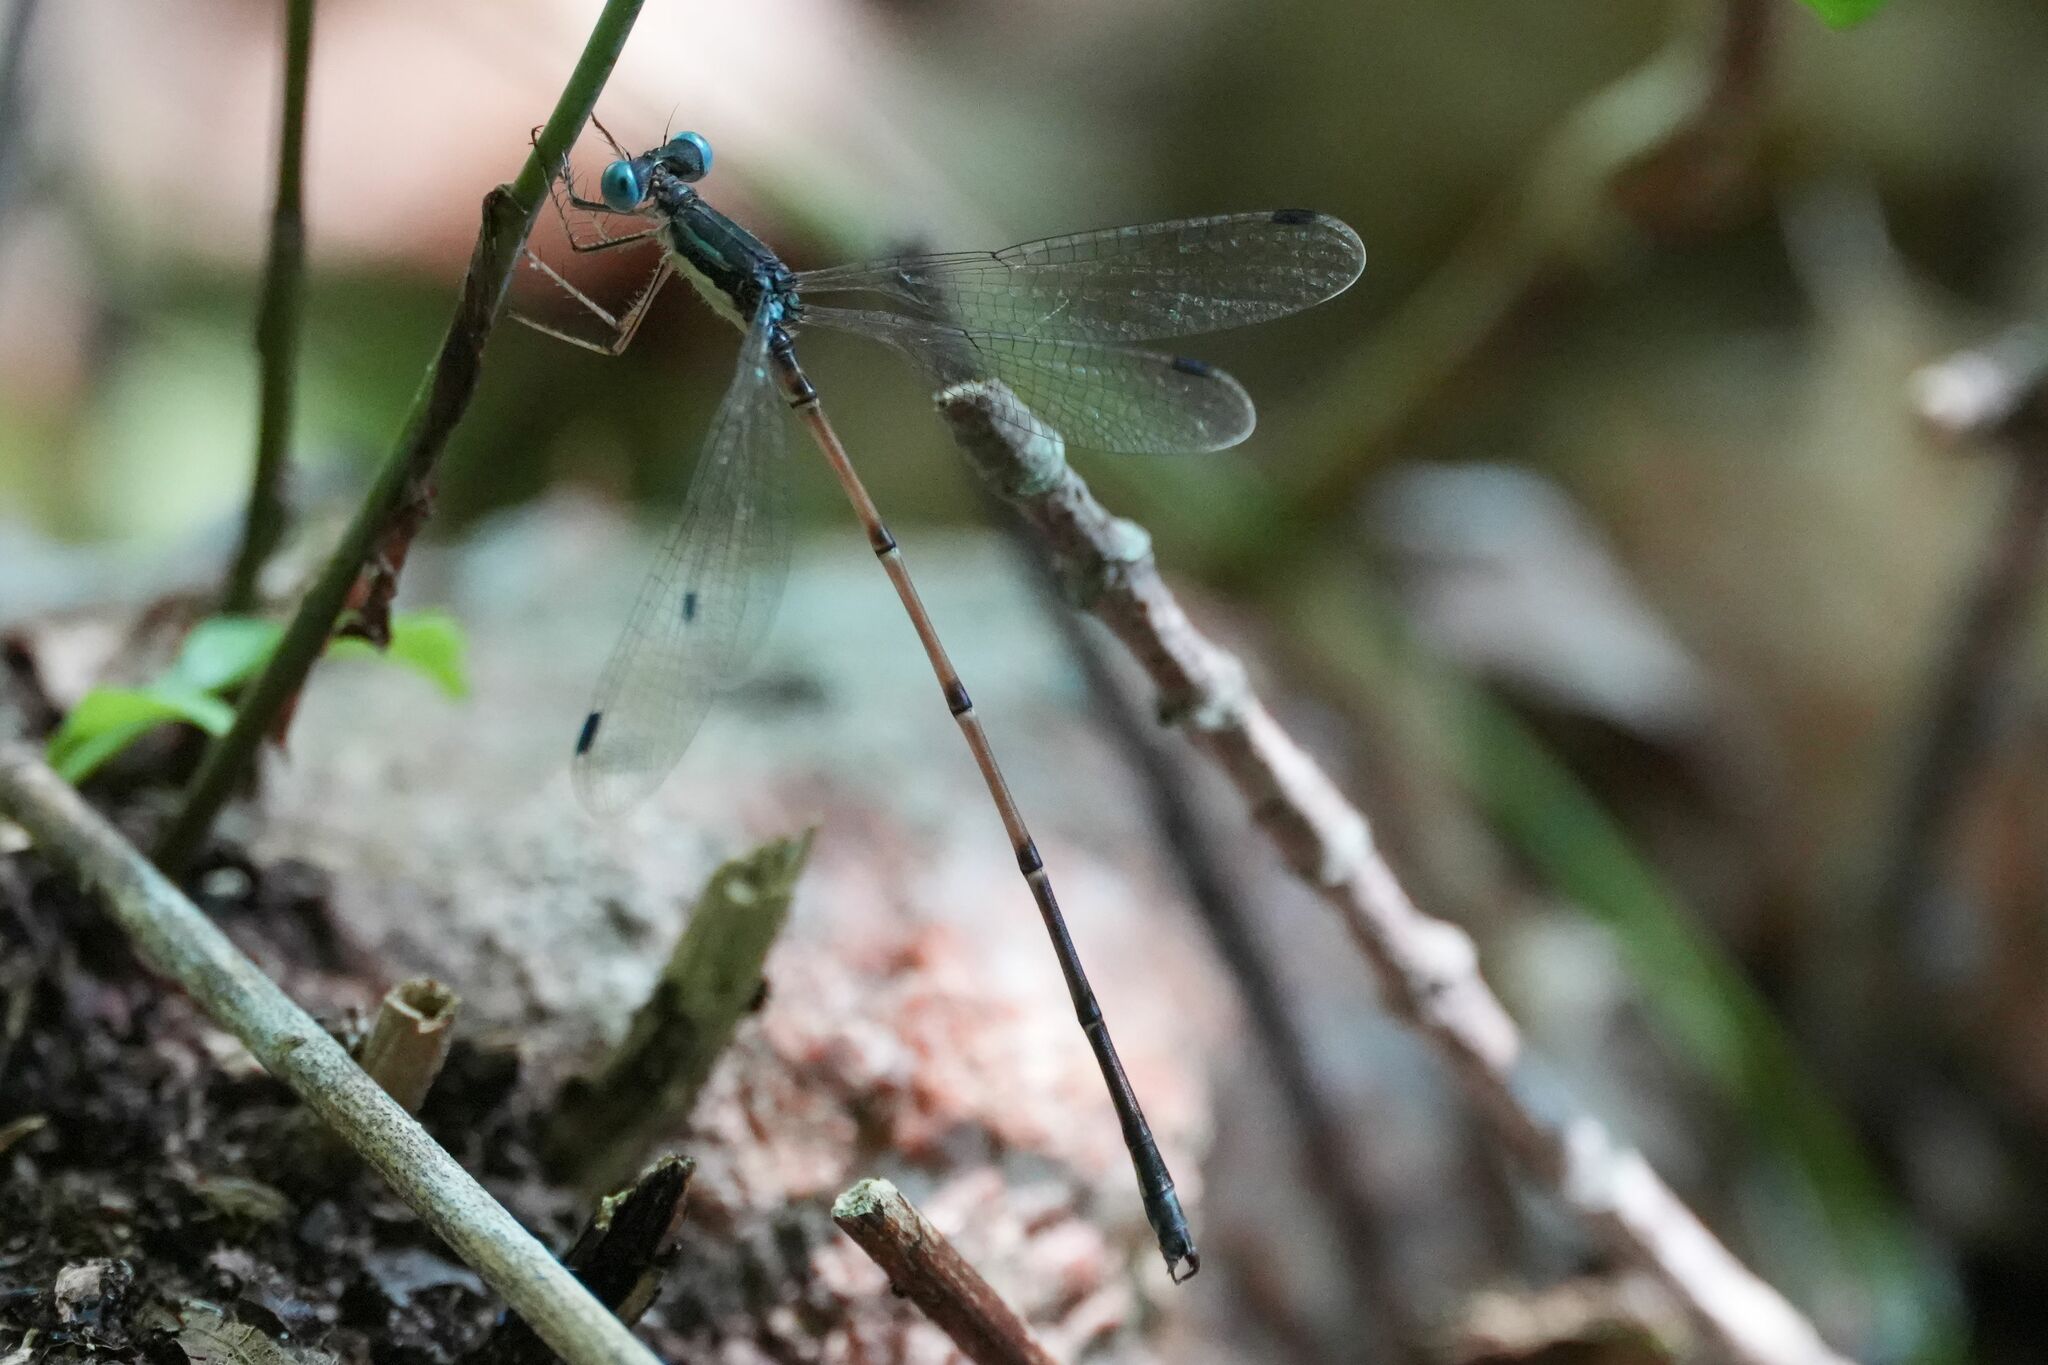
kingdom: Animalia
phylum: Arthropoda
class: Insecta
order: Odonata
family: Lestidae
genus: Lestes
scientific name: Lestes rectangularis
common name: Slender spreadwing
